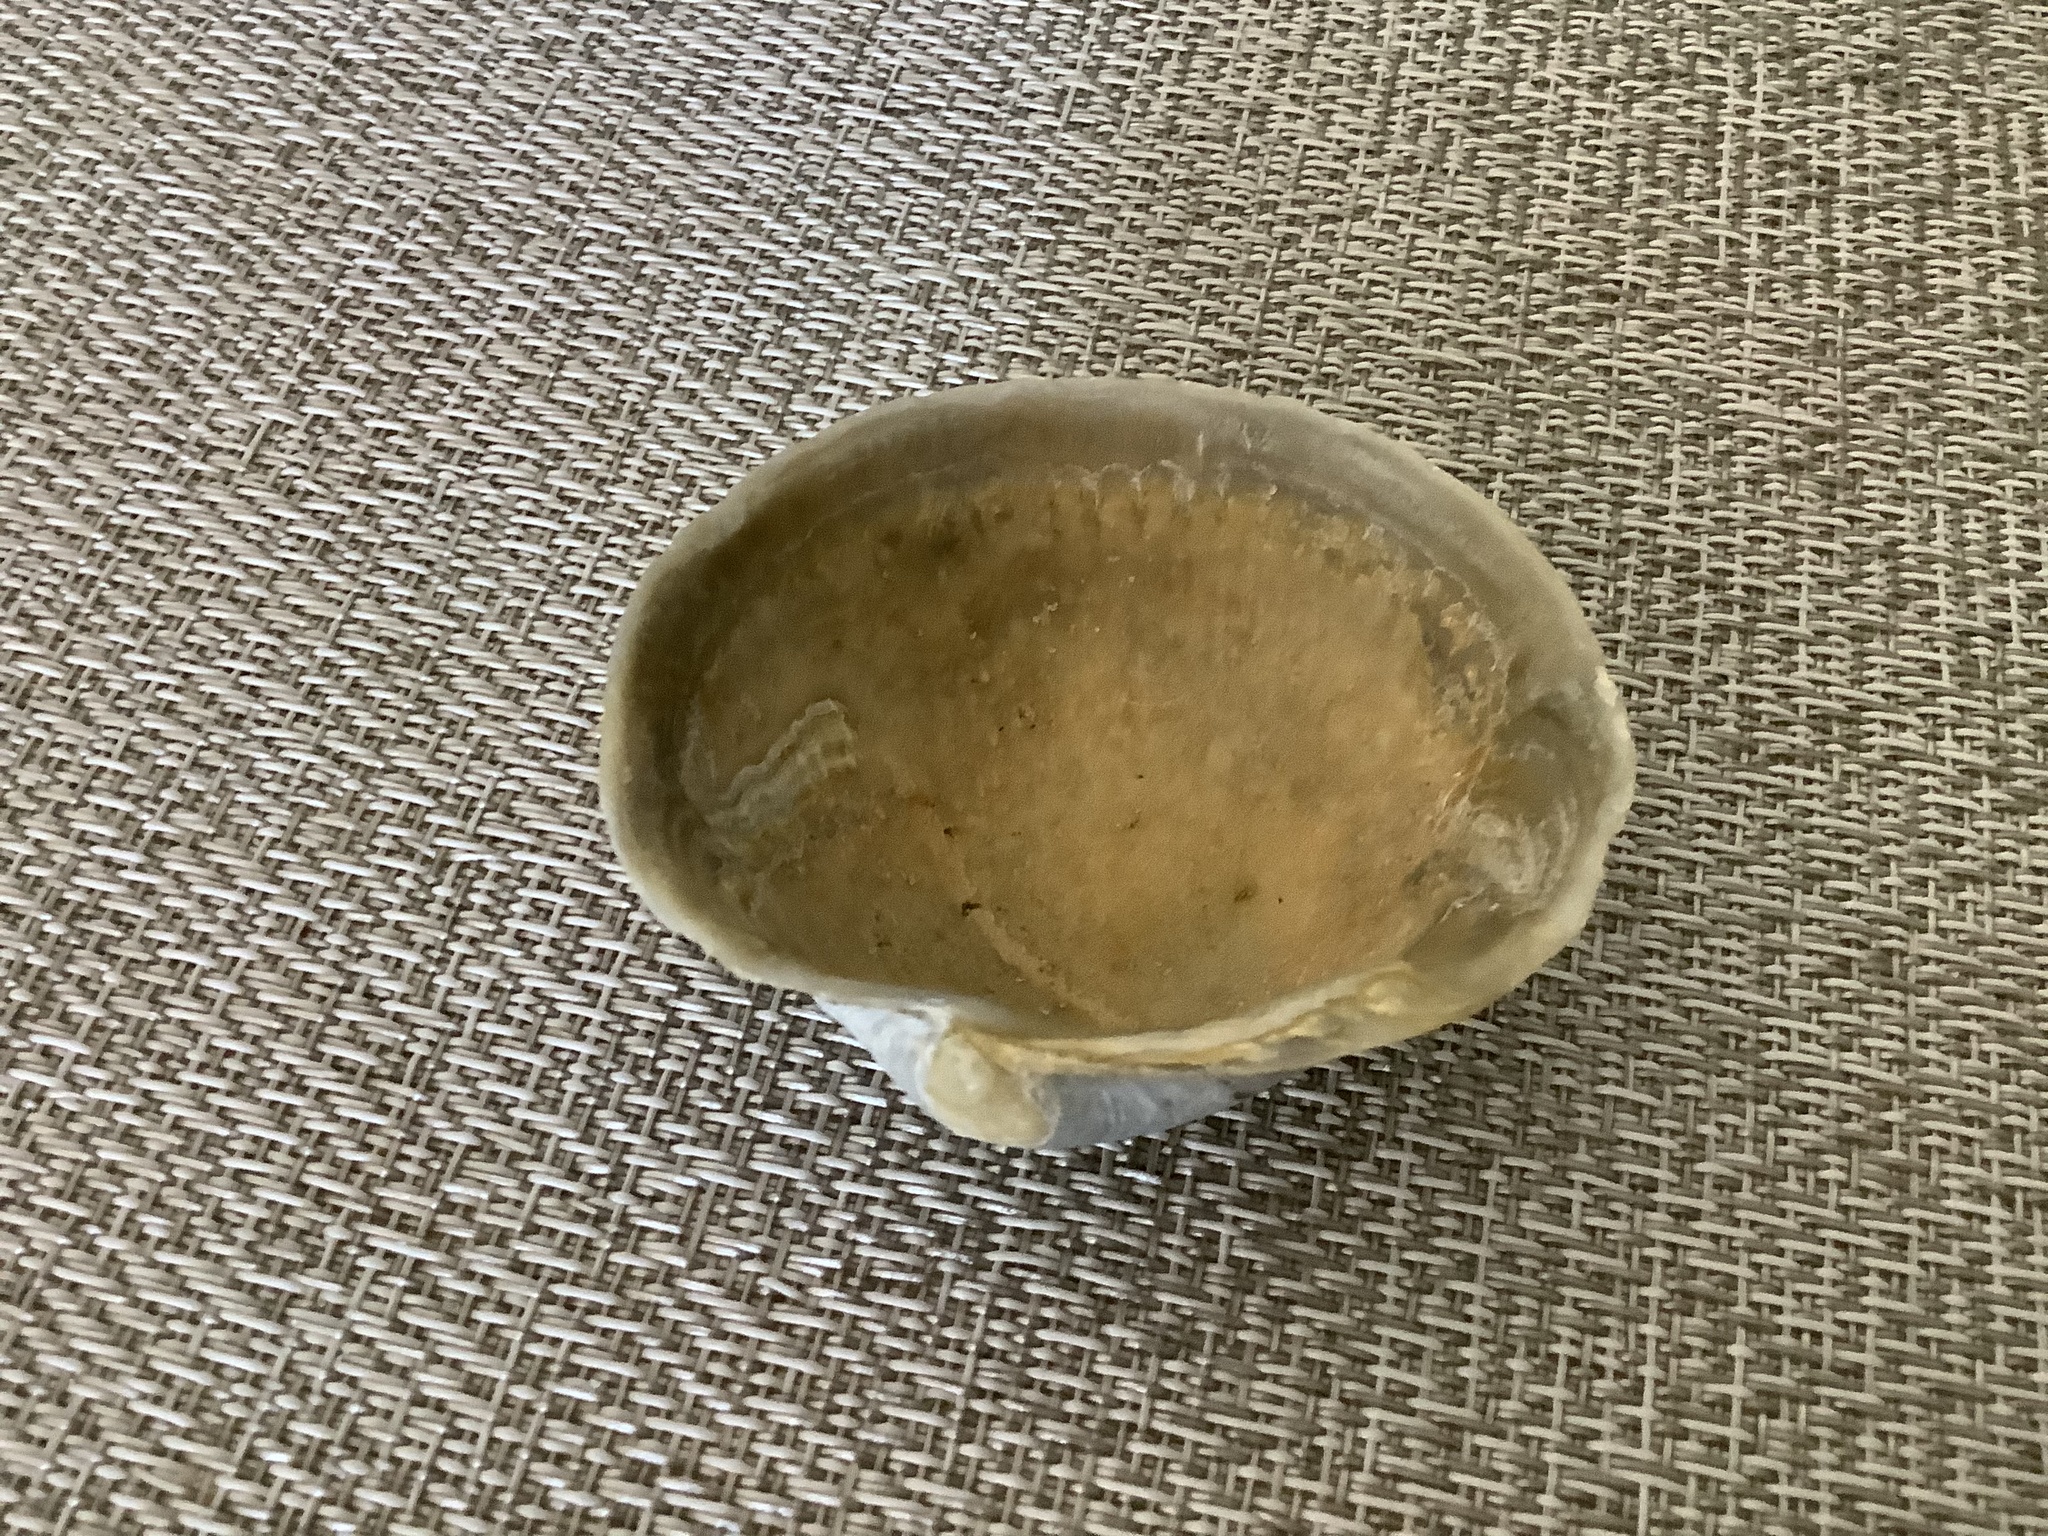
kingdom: Animalia
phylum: Mollusca
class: Bivalvia
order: Venerida
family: Veneridae
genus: Mercenaria
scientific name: Mercenaria campechiensis
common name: Südliche quahog-muschel
